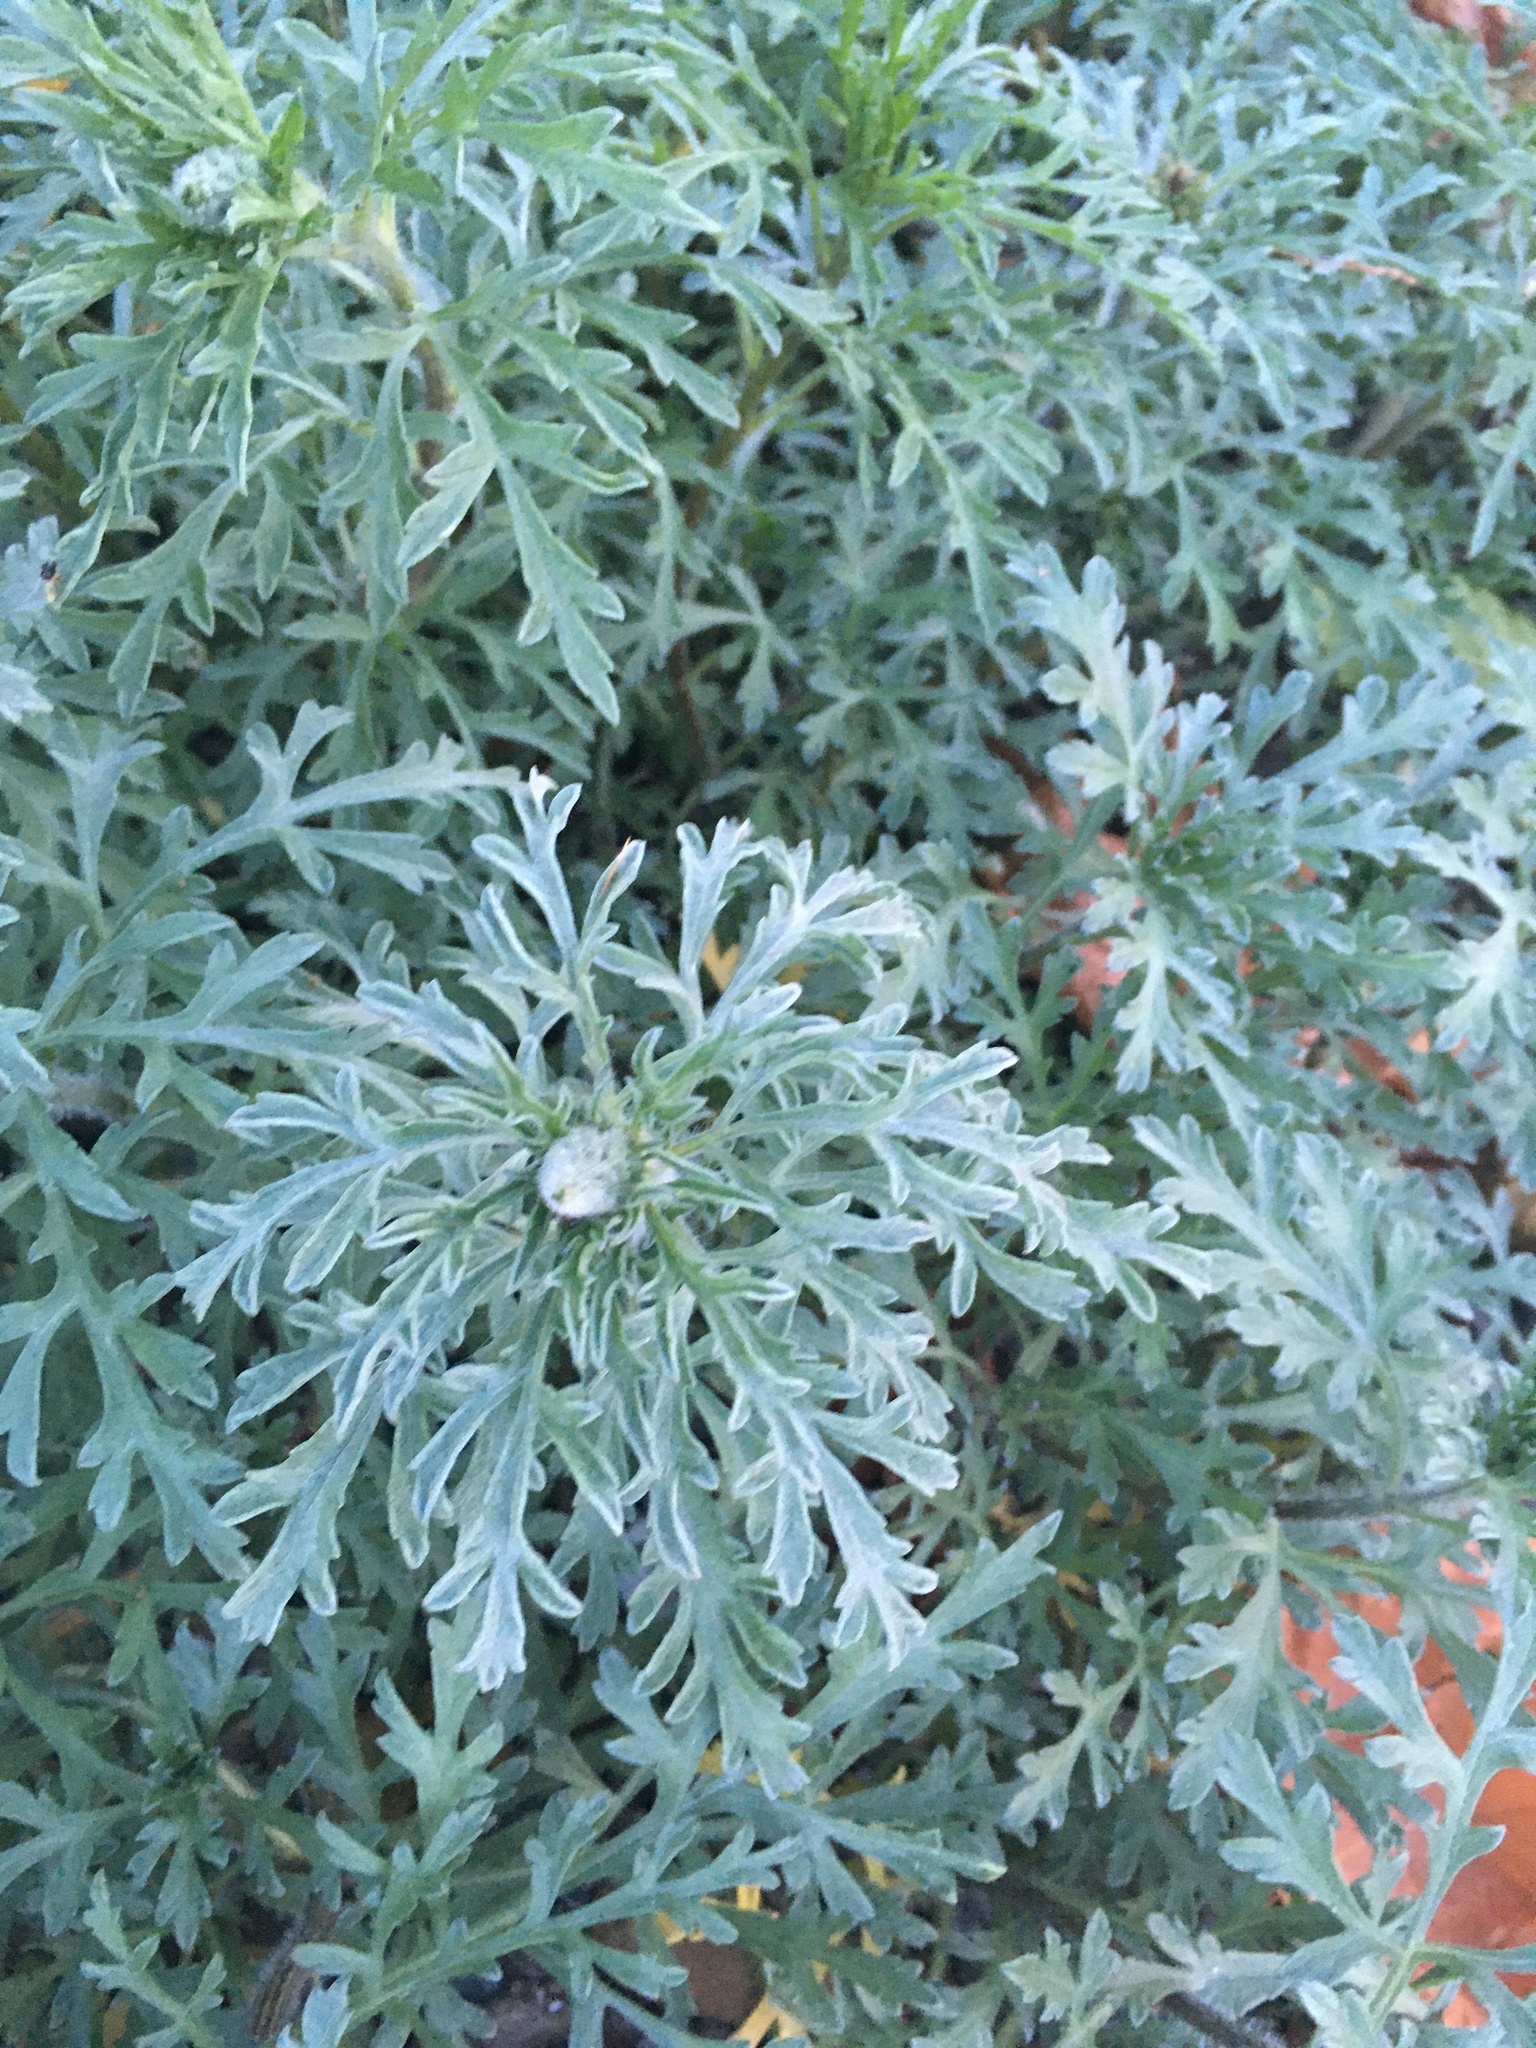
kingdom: Plantae
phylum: Tracheophyta
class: Magnoliopsida
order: Asterales
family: Asteraceae
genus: Ambrosia
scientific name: Ambrosia chamissonis
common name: Beachbur
